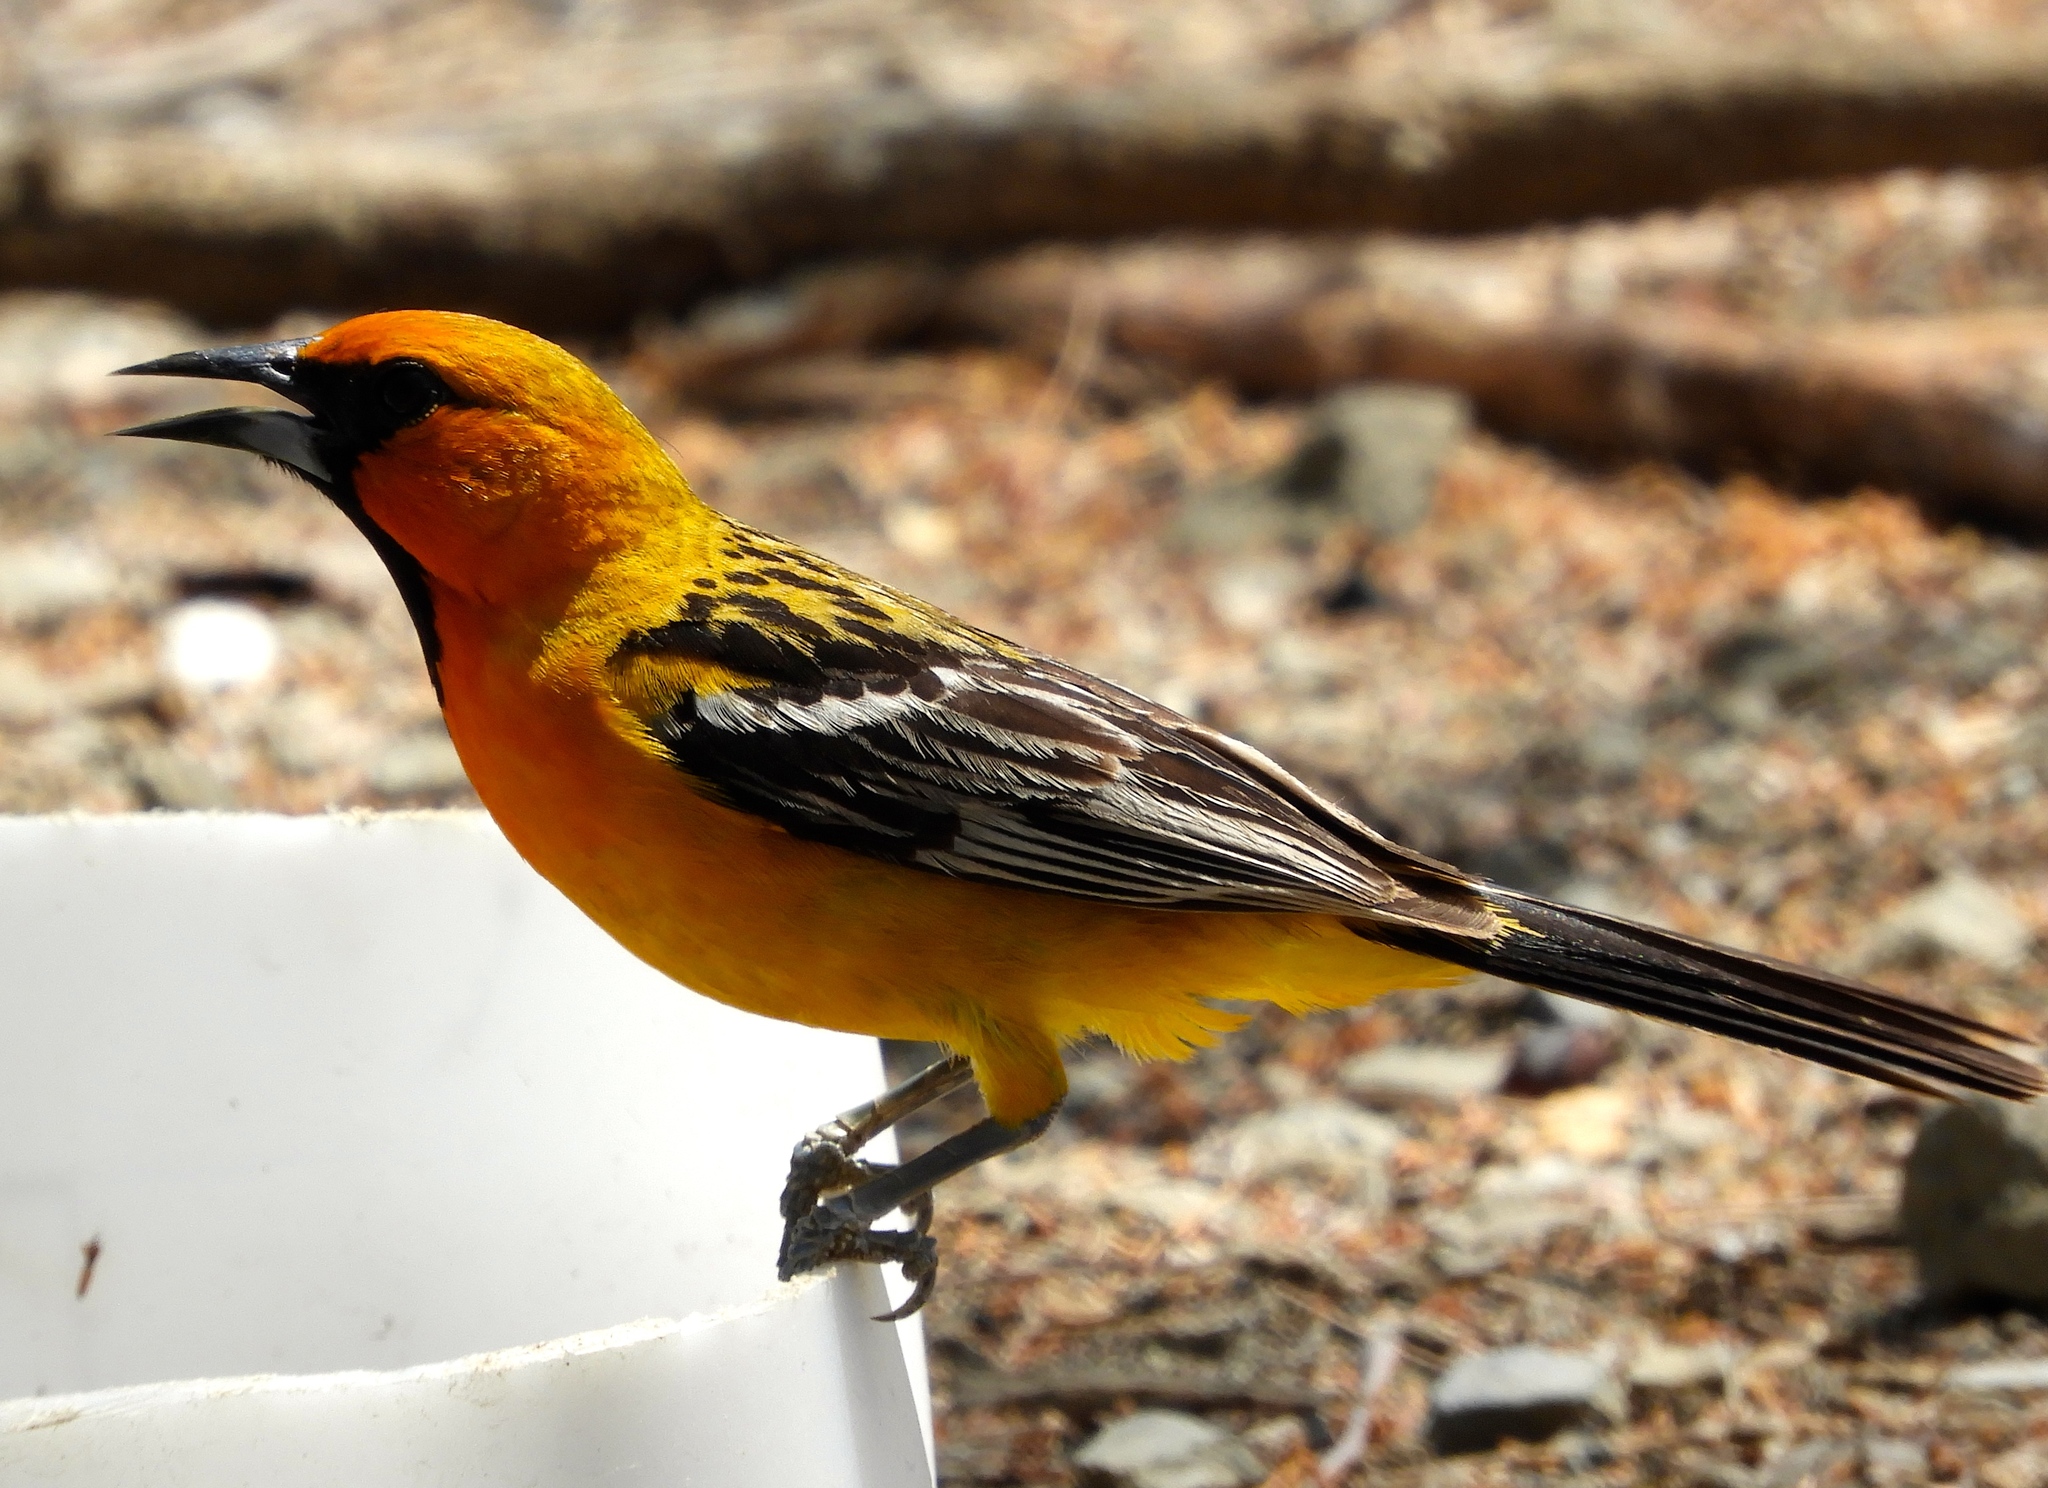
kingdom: Animalia
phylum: Chordata
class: Aves
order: Passeriformes
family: Icteridae
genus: Icterus
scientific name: Icterus pustulatus
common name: Streak-backed oriole
